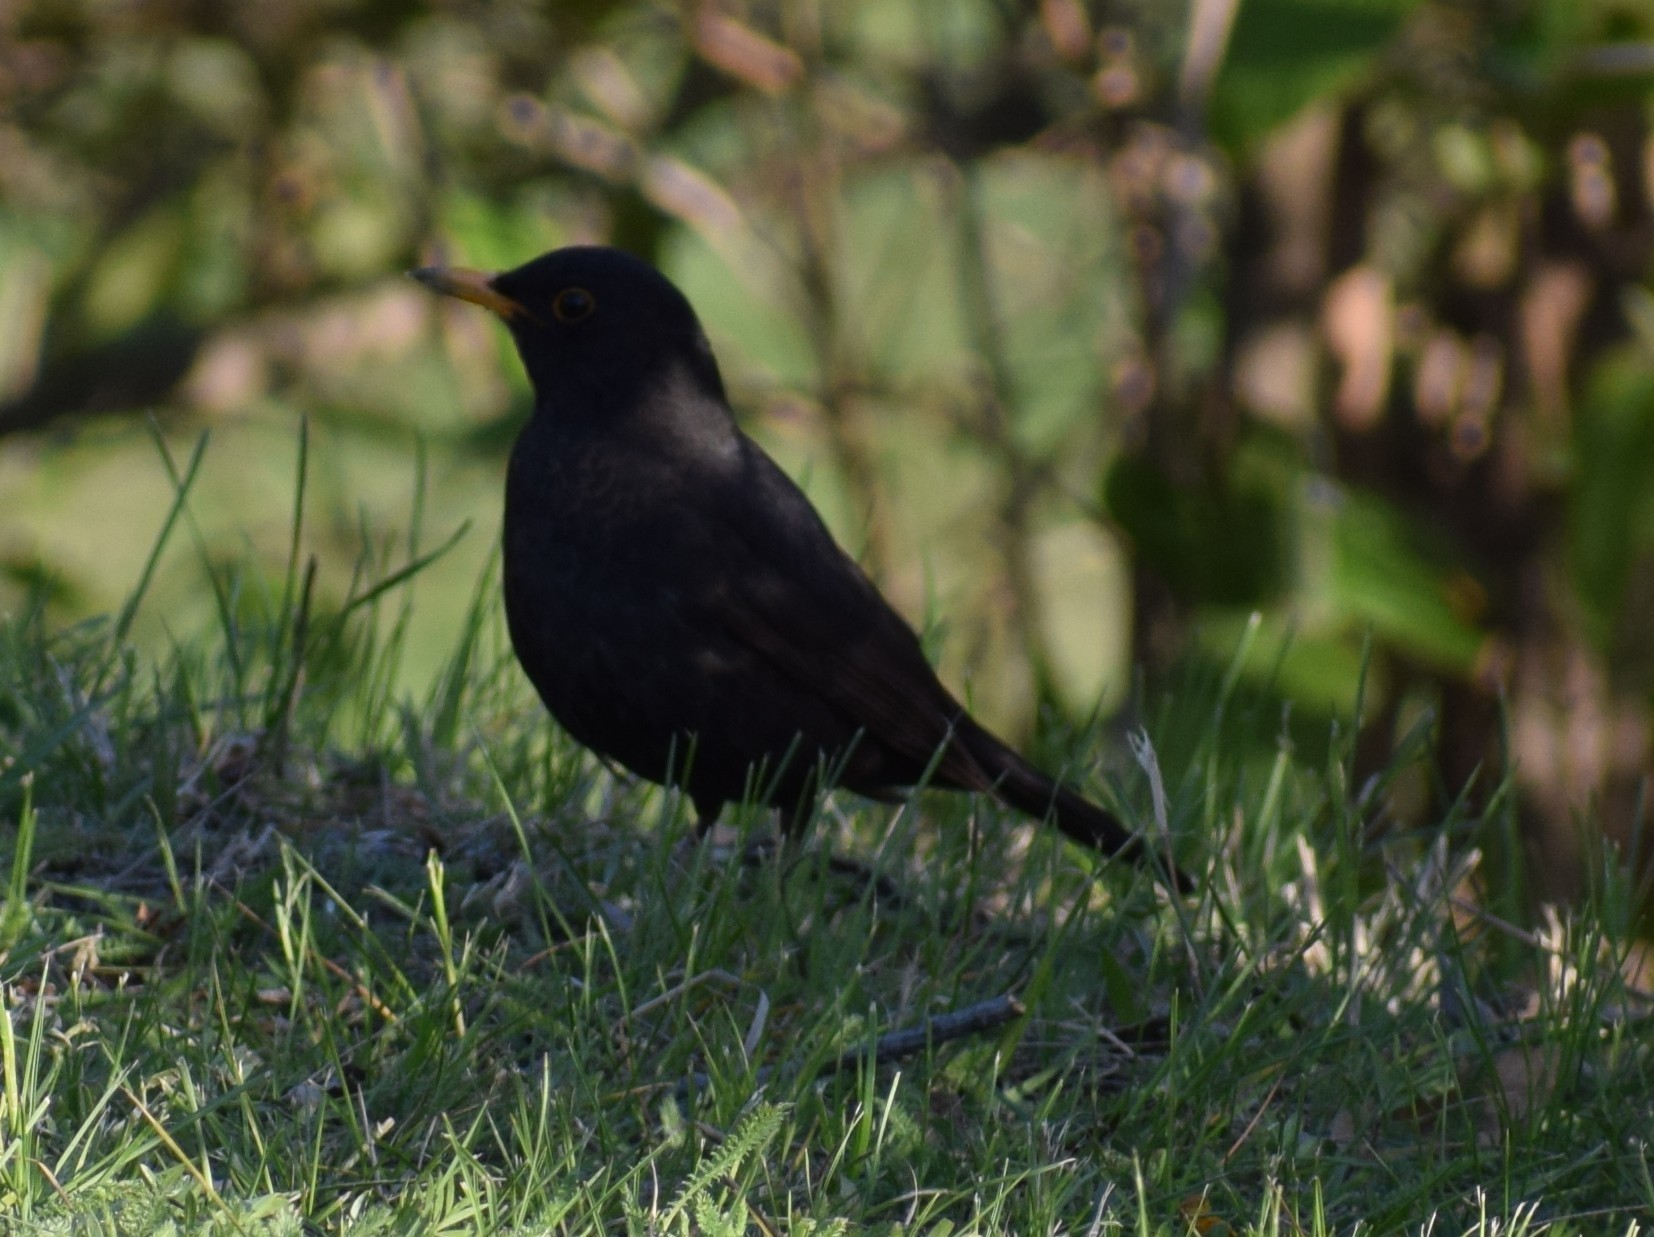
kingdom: Animalia
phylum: Chordata
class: Aves
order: Passeriformes
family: Turdidae
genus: Turdus
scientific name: Turdus merula
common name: Common blackbird
